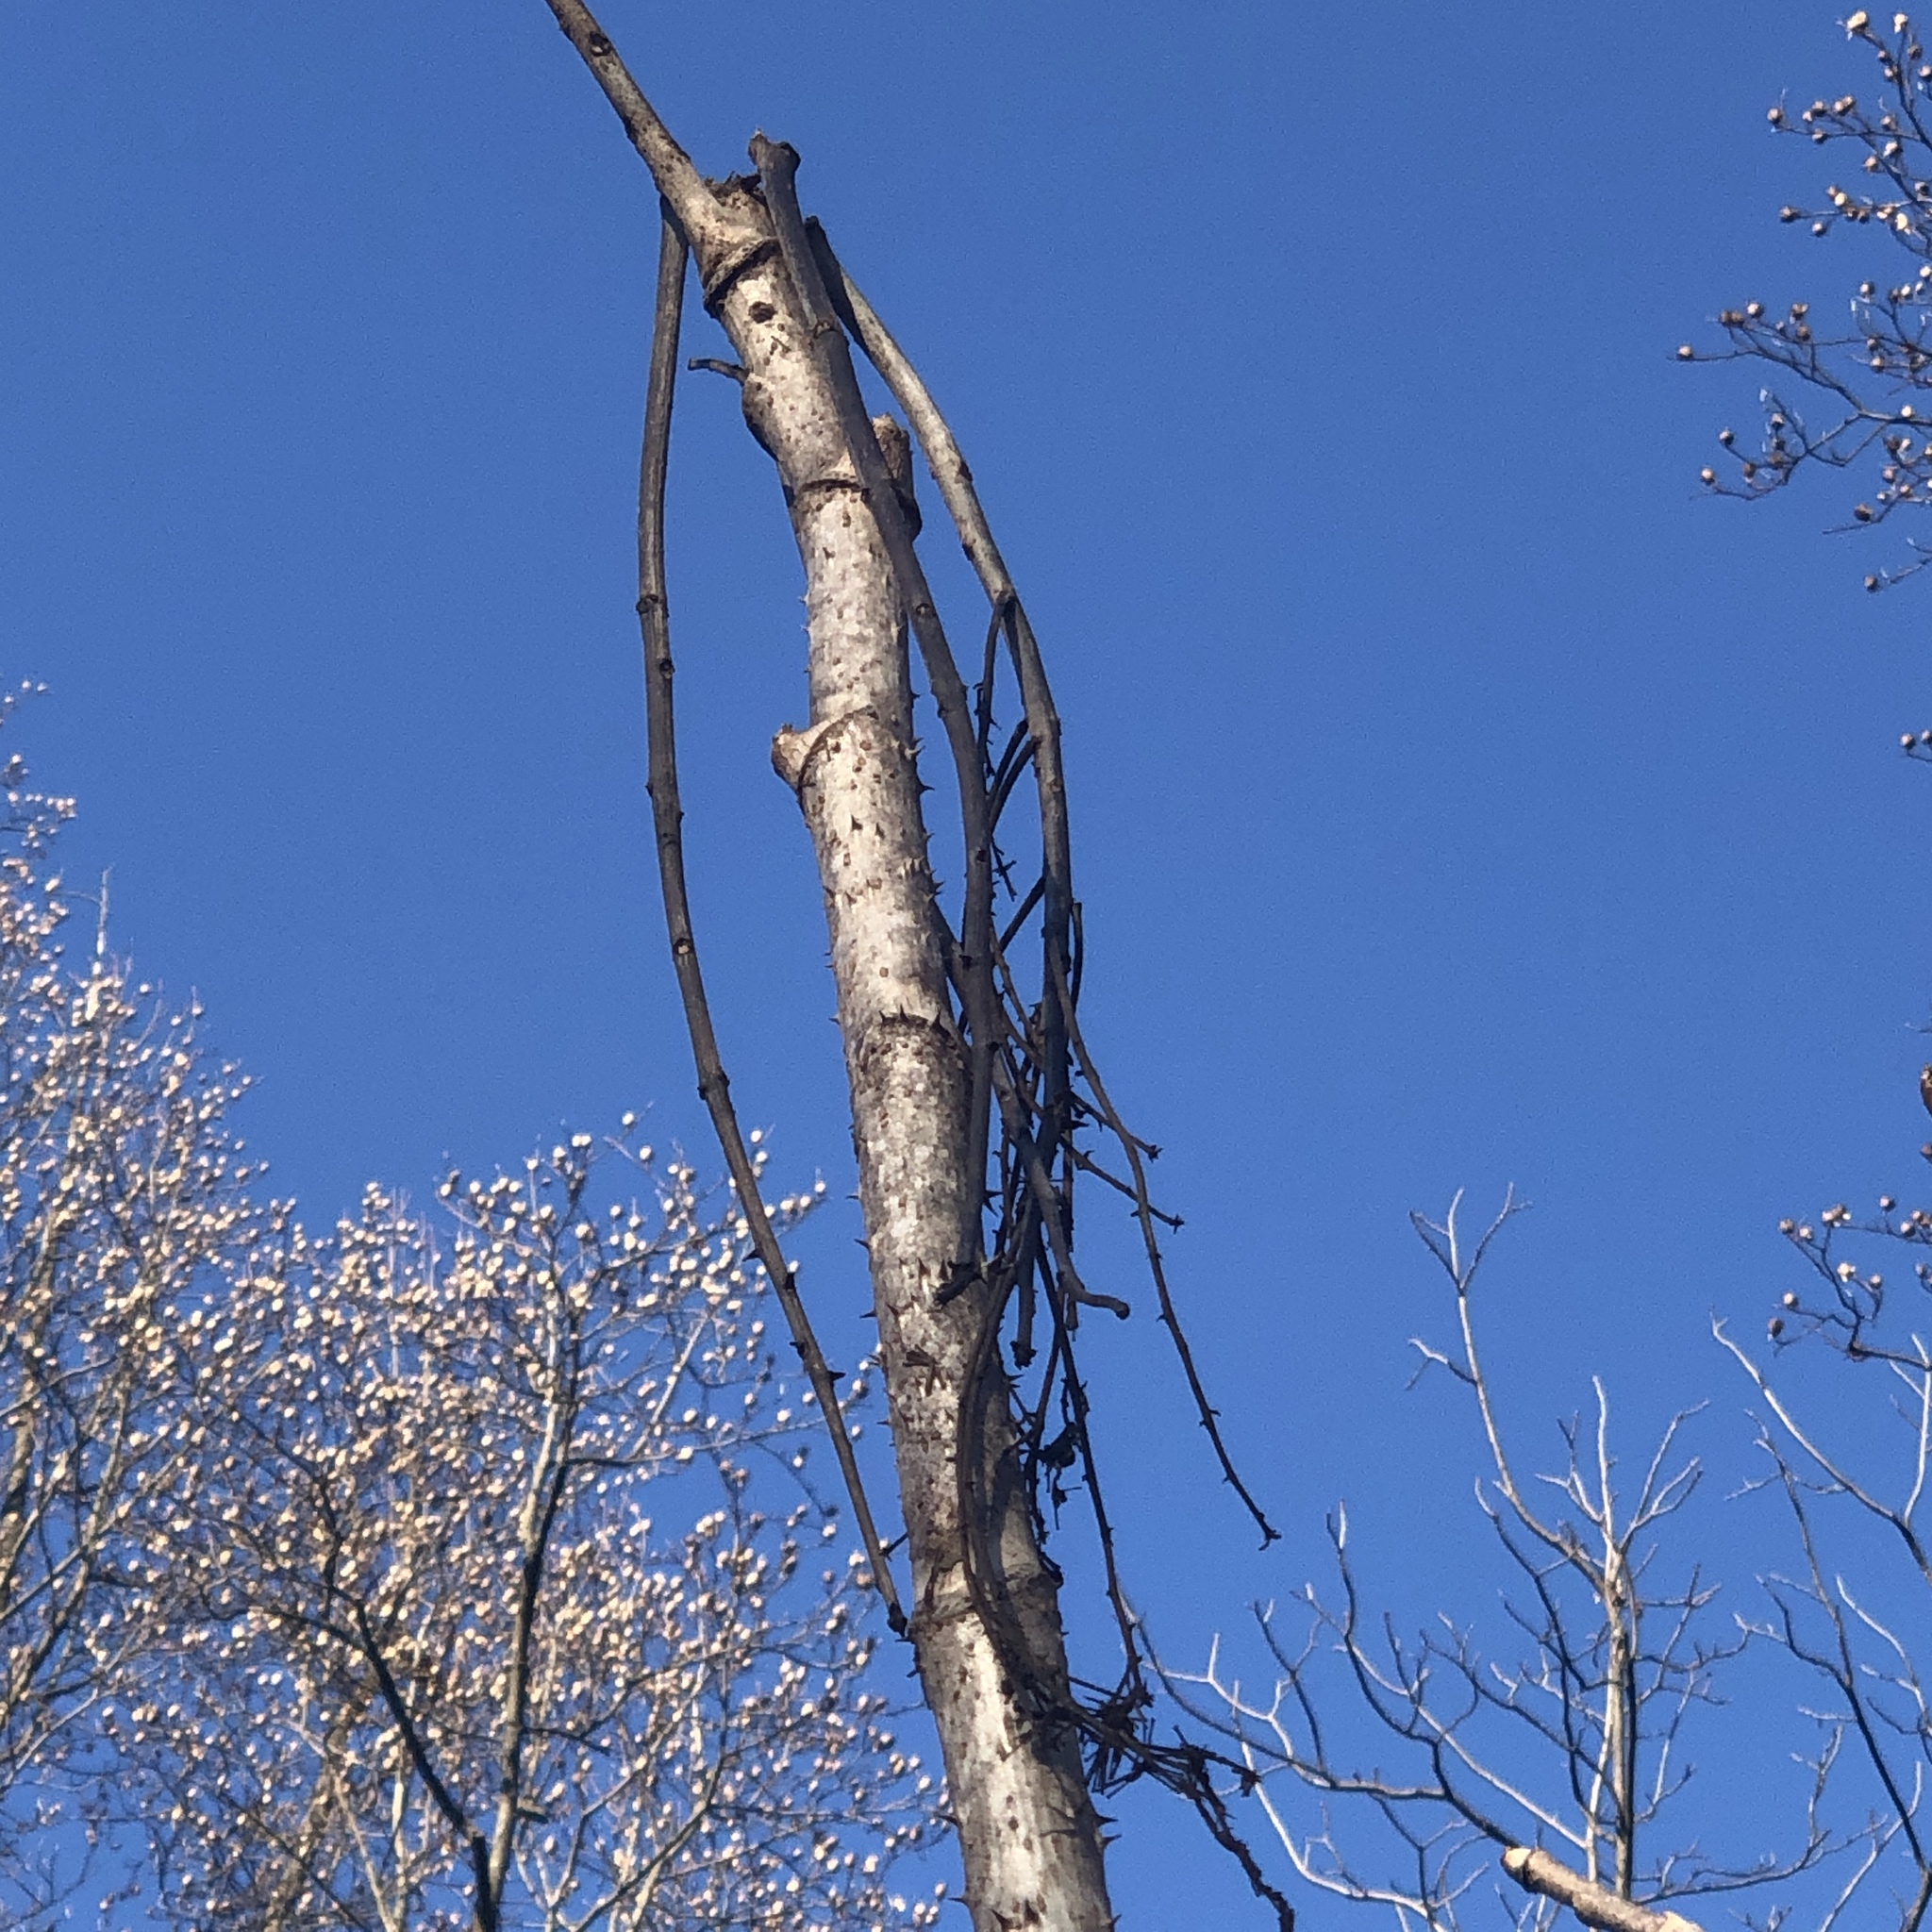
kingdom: Plantae
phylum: Tracheophyta
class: Magnoliopsida
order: Apiales
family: Araliaceae
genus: Aralia
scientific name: Aralia elata
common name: Japanese angelica-tree
